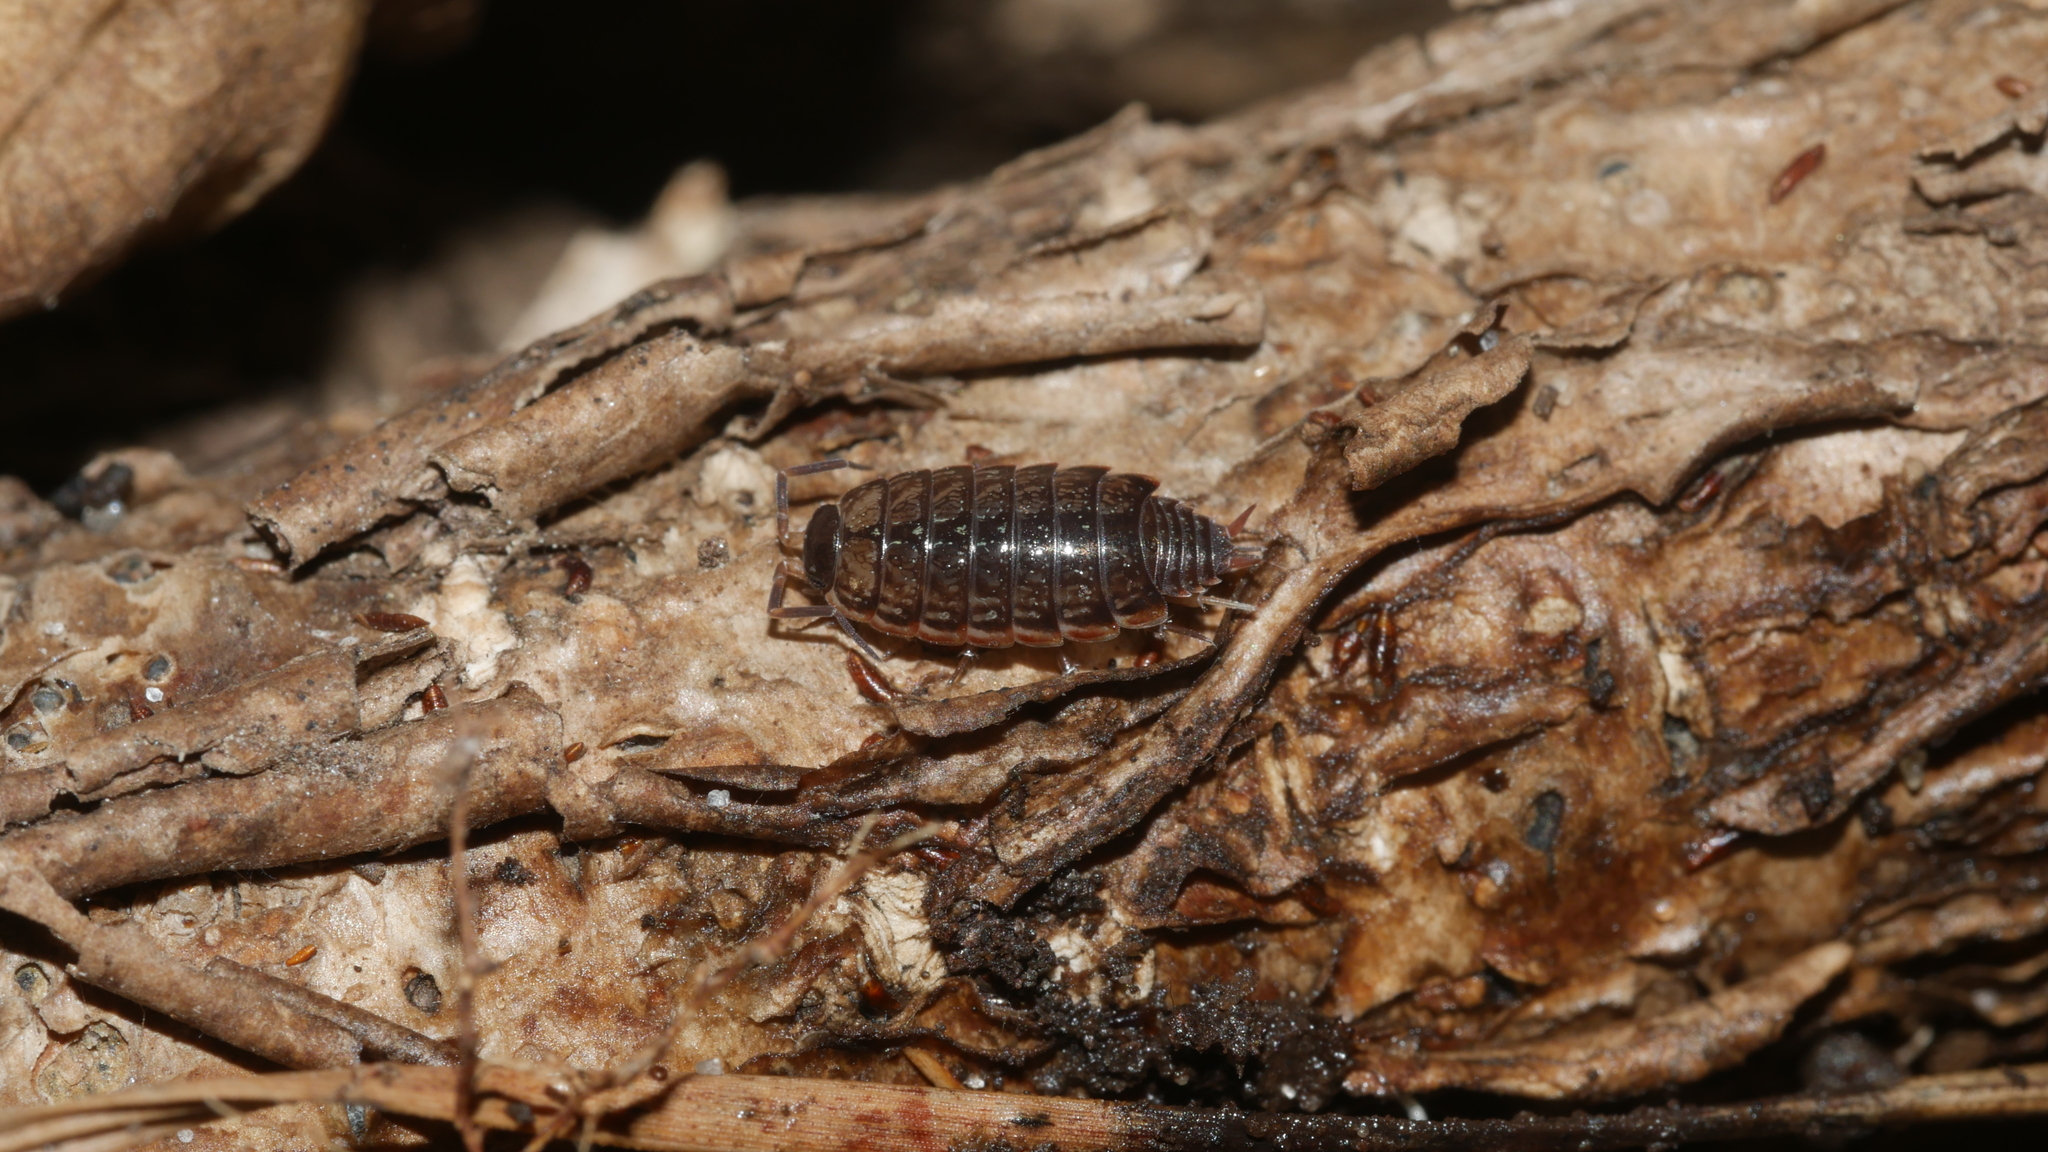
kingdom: Animalia
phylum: Arthropoda
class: Malacostraca
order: Isopoda
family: Philosciidae
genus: Philoscia
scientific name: Philoscia muscorum
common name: Common striped woodlouse
